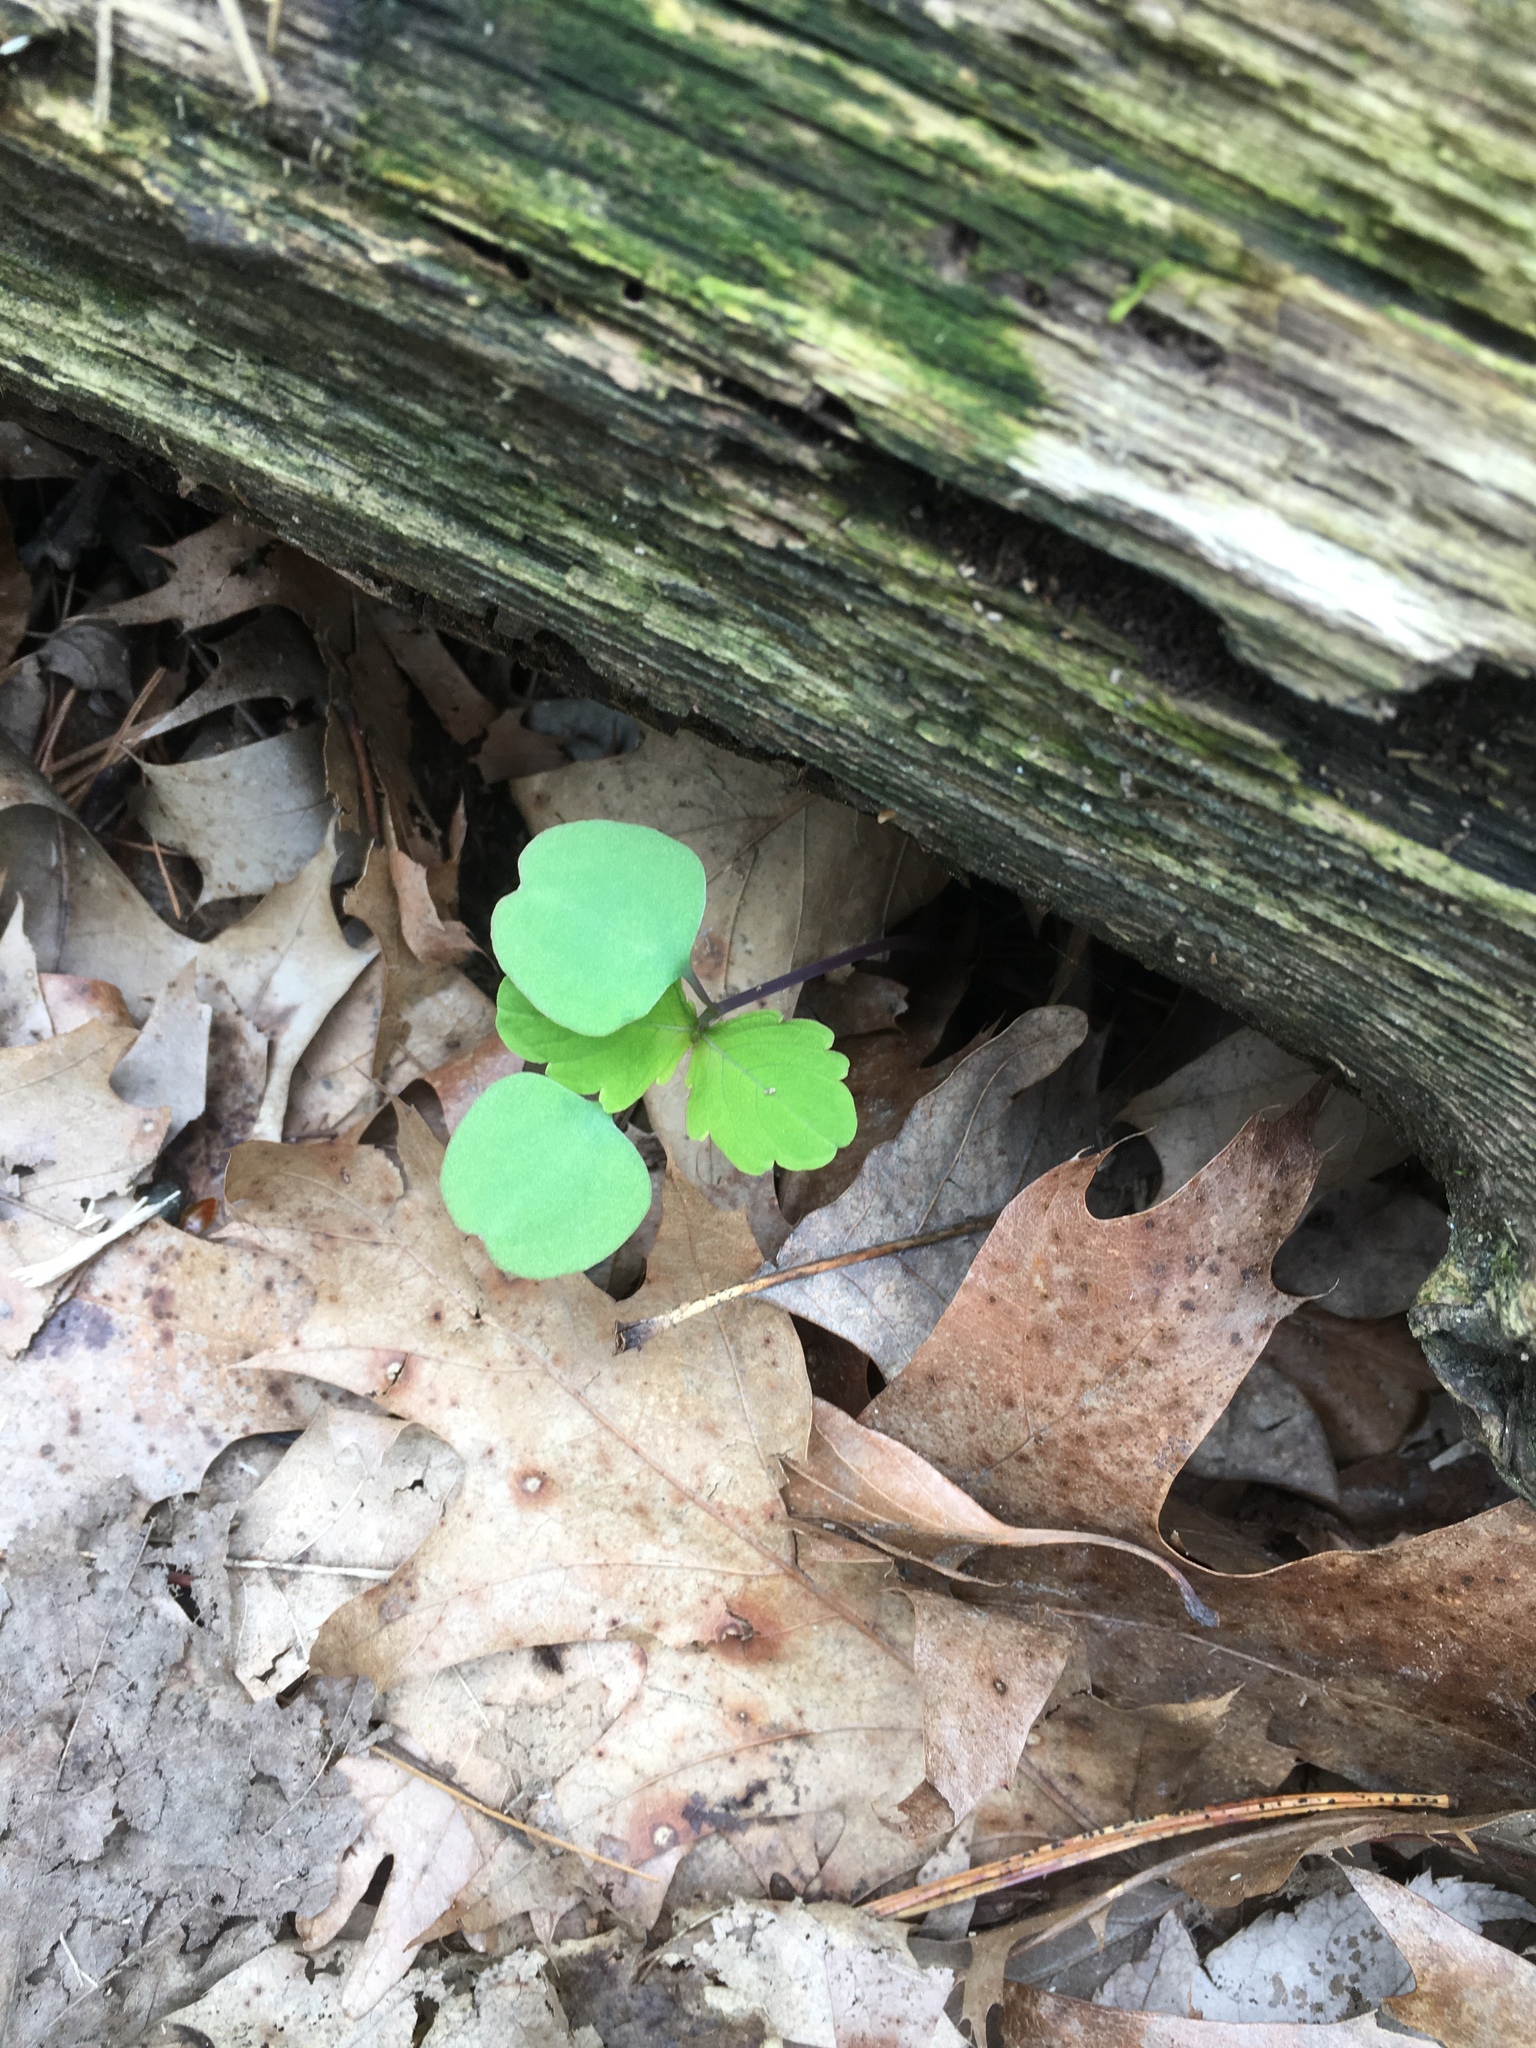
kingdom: Plantae
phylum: Tracheophyta
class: Magnoliopsida
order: Ericales
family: Balsaminaceae
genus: Impatiens
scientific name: Impatiens capensis
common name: Orange balsam
